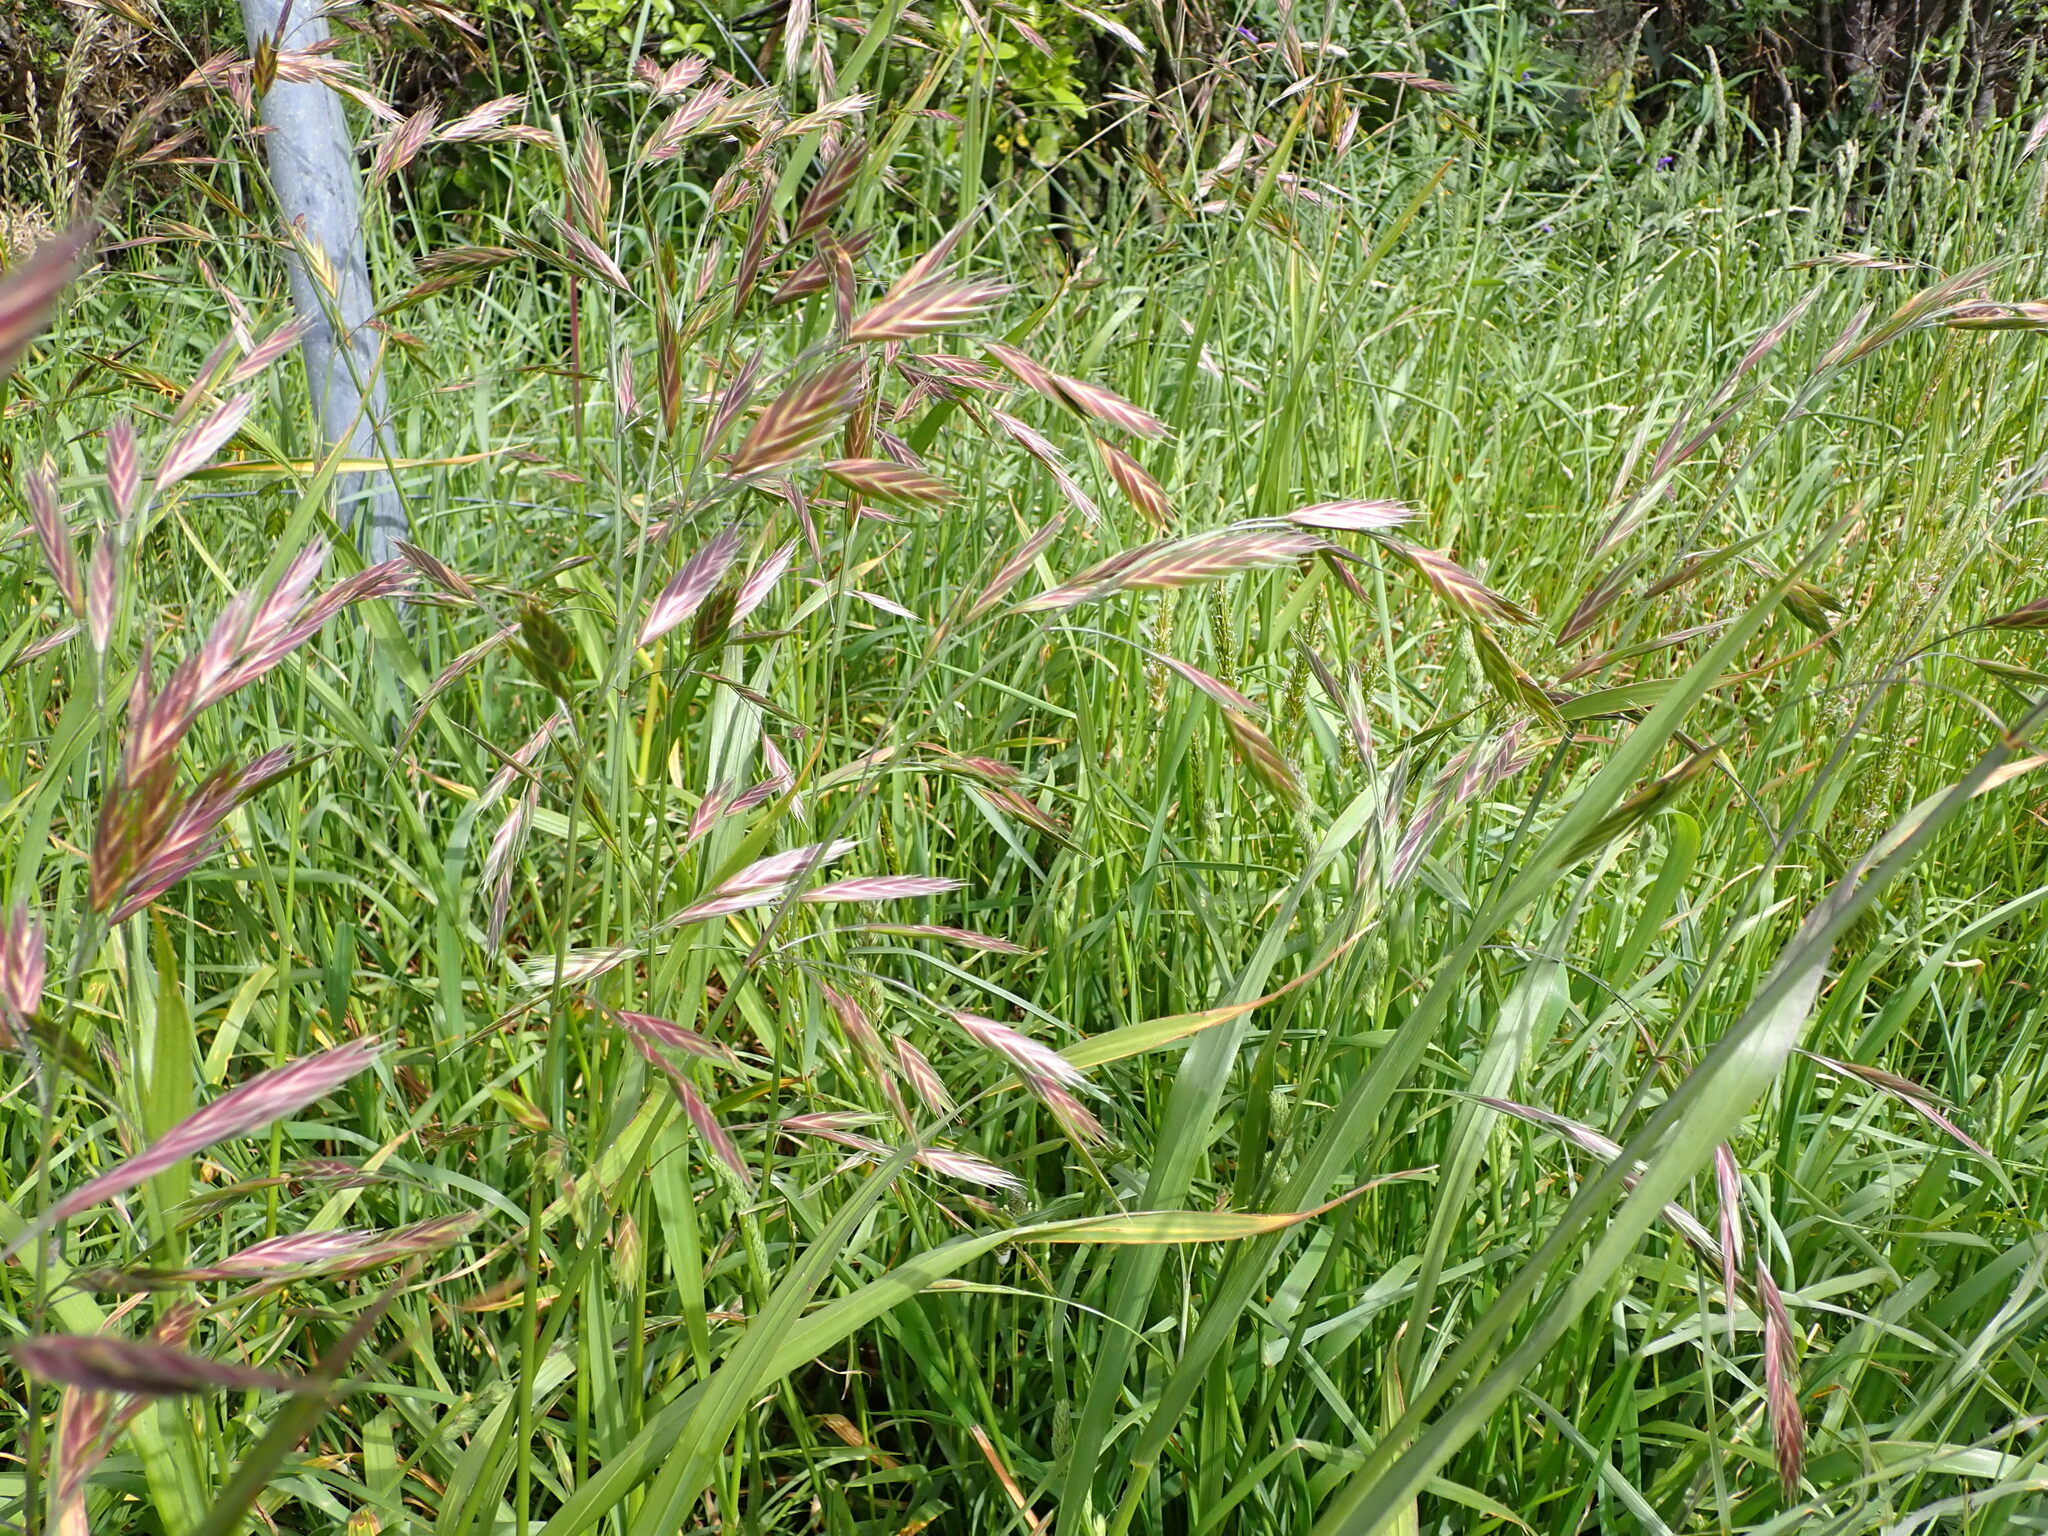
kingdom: Plantae
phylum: Tracheophyta
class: Liliopsida
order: Poales
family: Poaceae
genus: Bromus
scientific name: Bromus catharticus
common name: Rescuegrass
